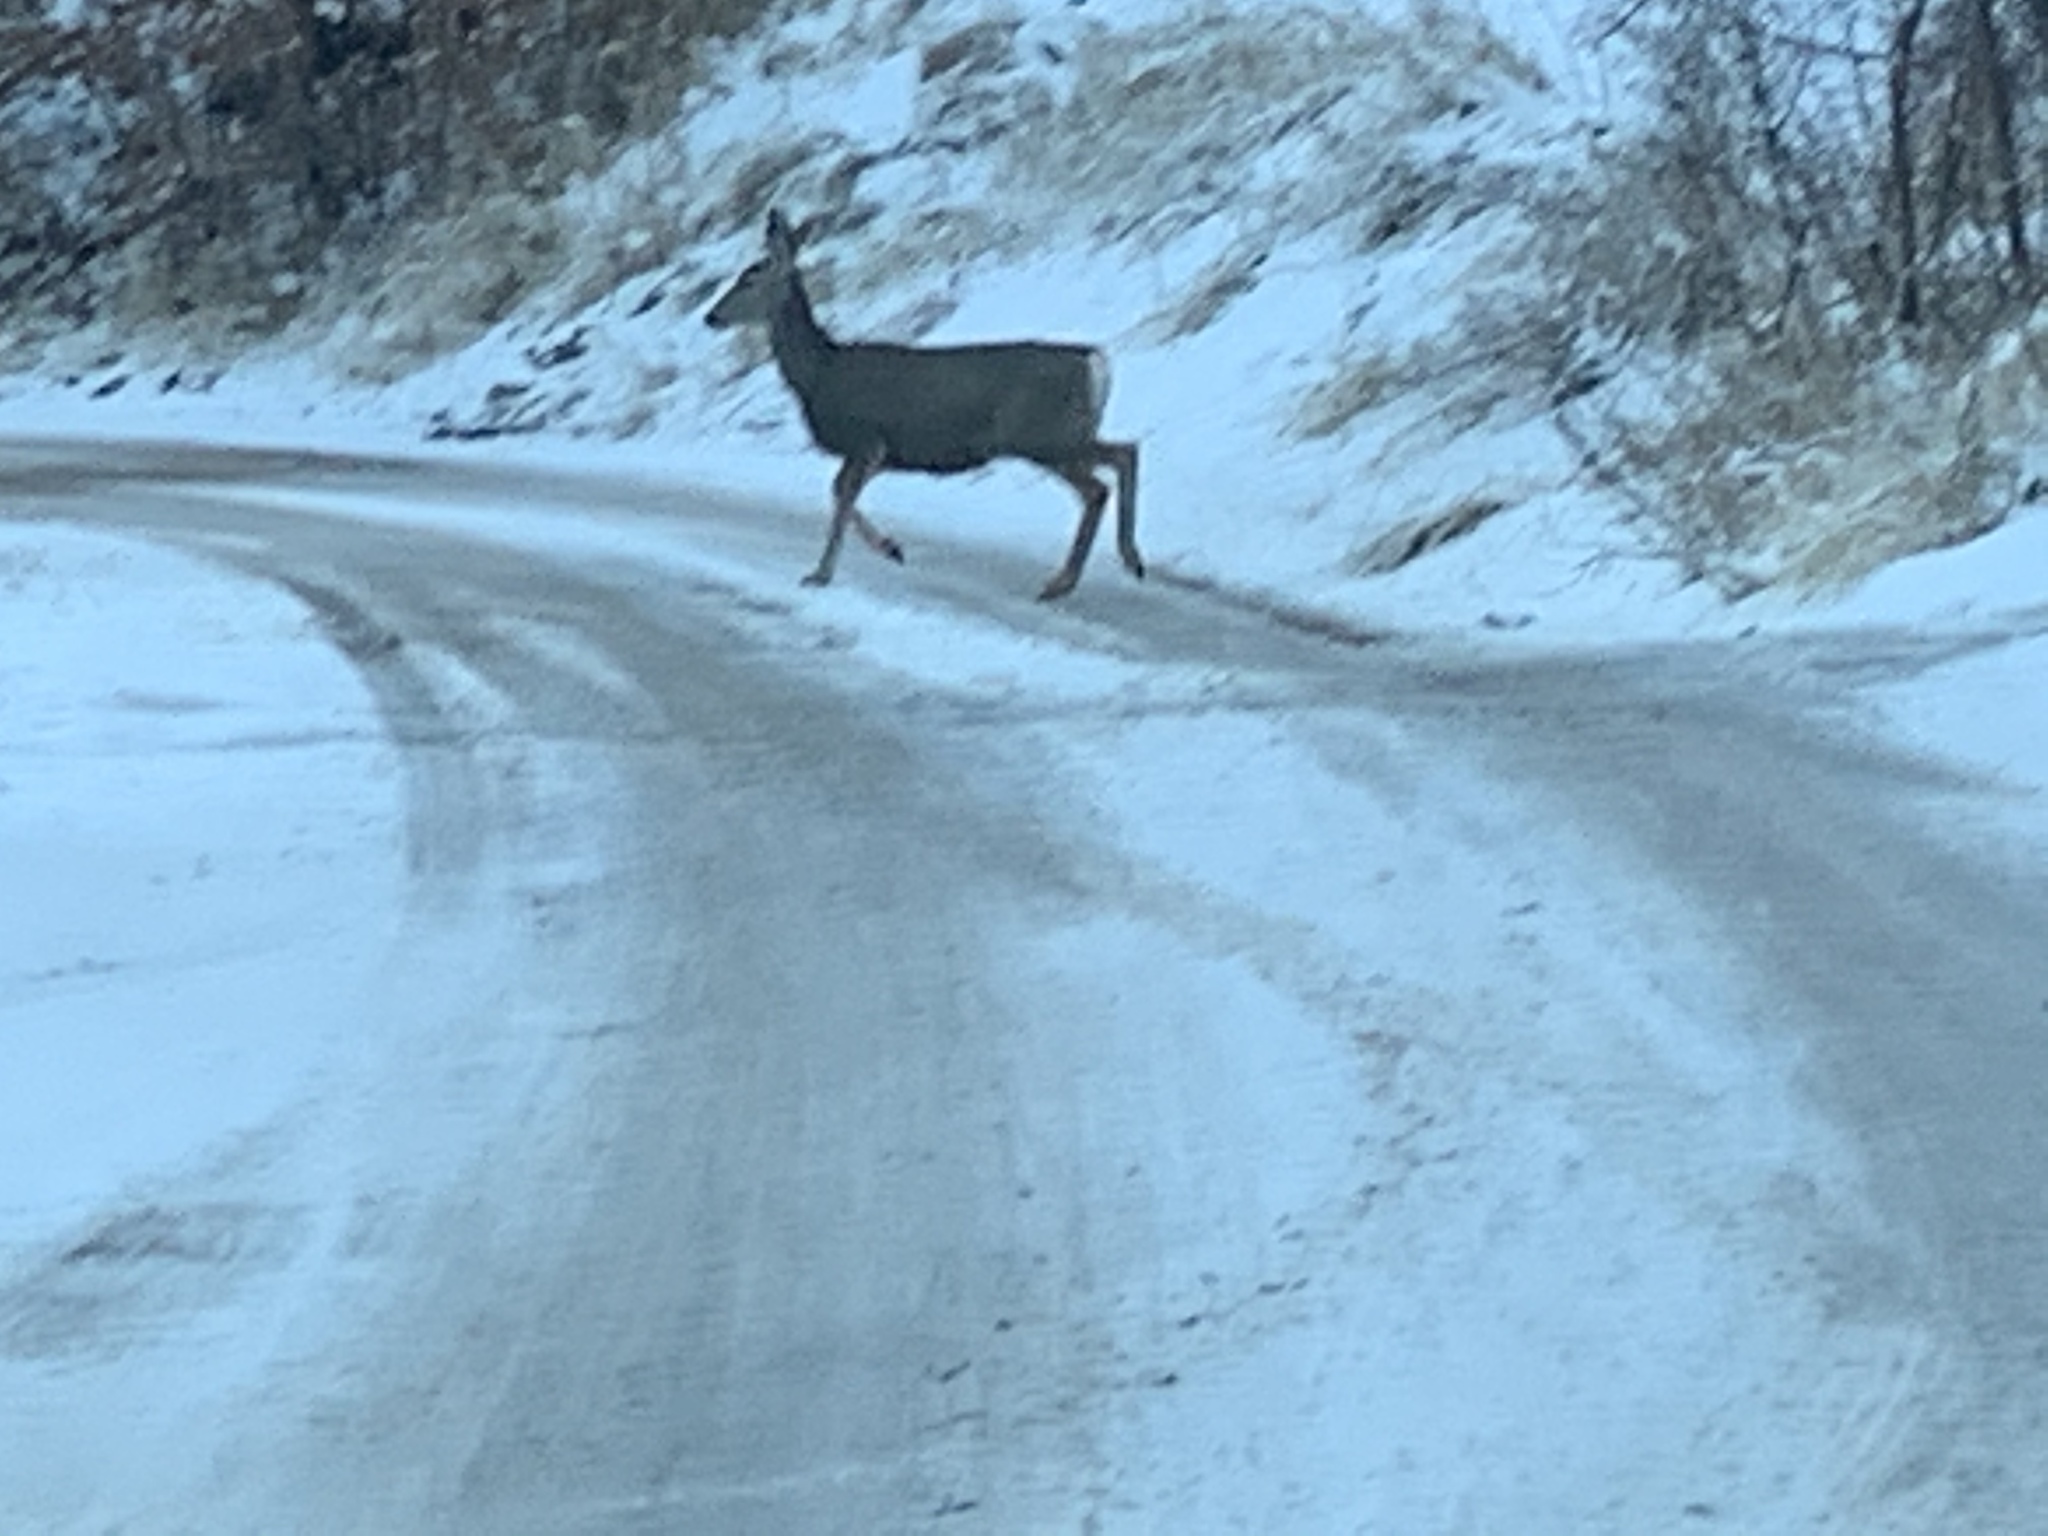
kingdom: Animalia
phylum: Chordata
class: Mammalia
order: Artiodactyla
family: Cervidae
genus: Odocoileus
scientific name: Odocoileus hemionus
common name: Mule deer
